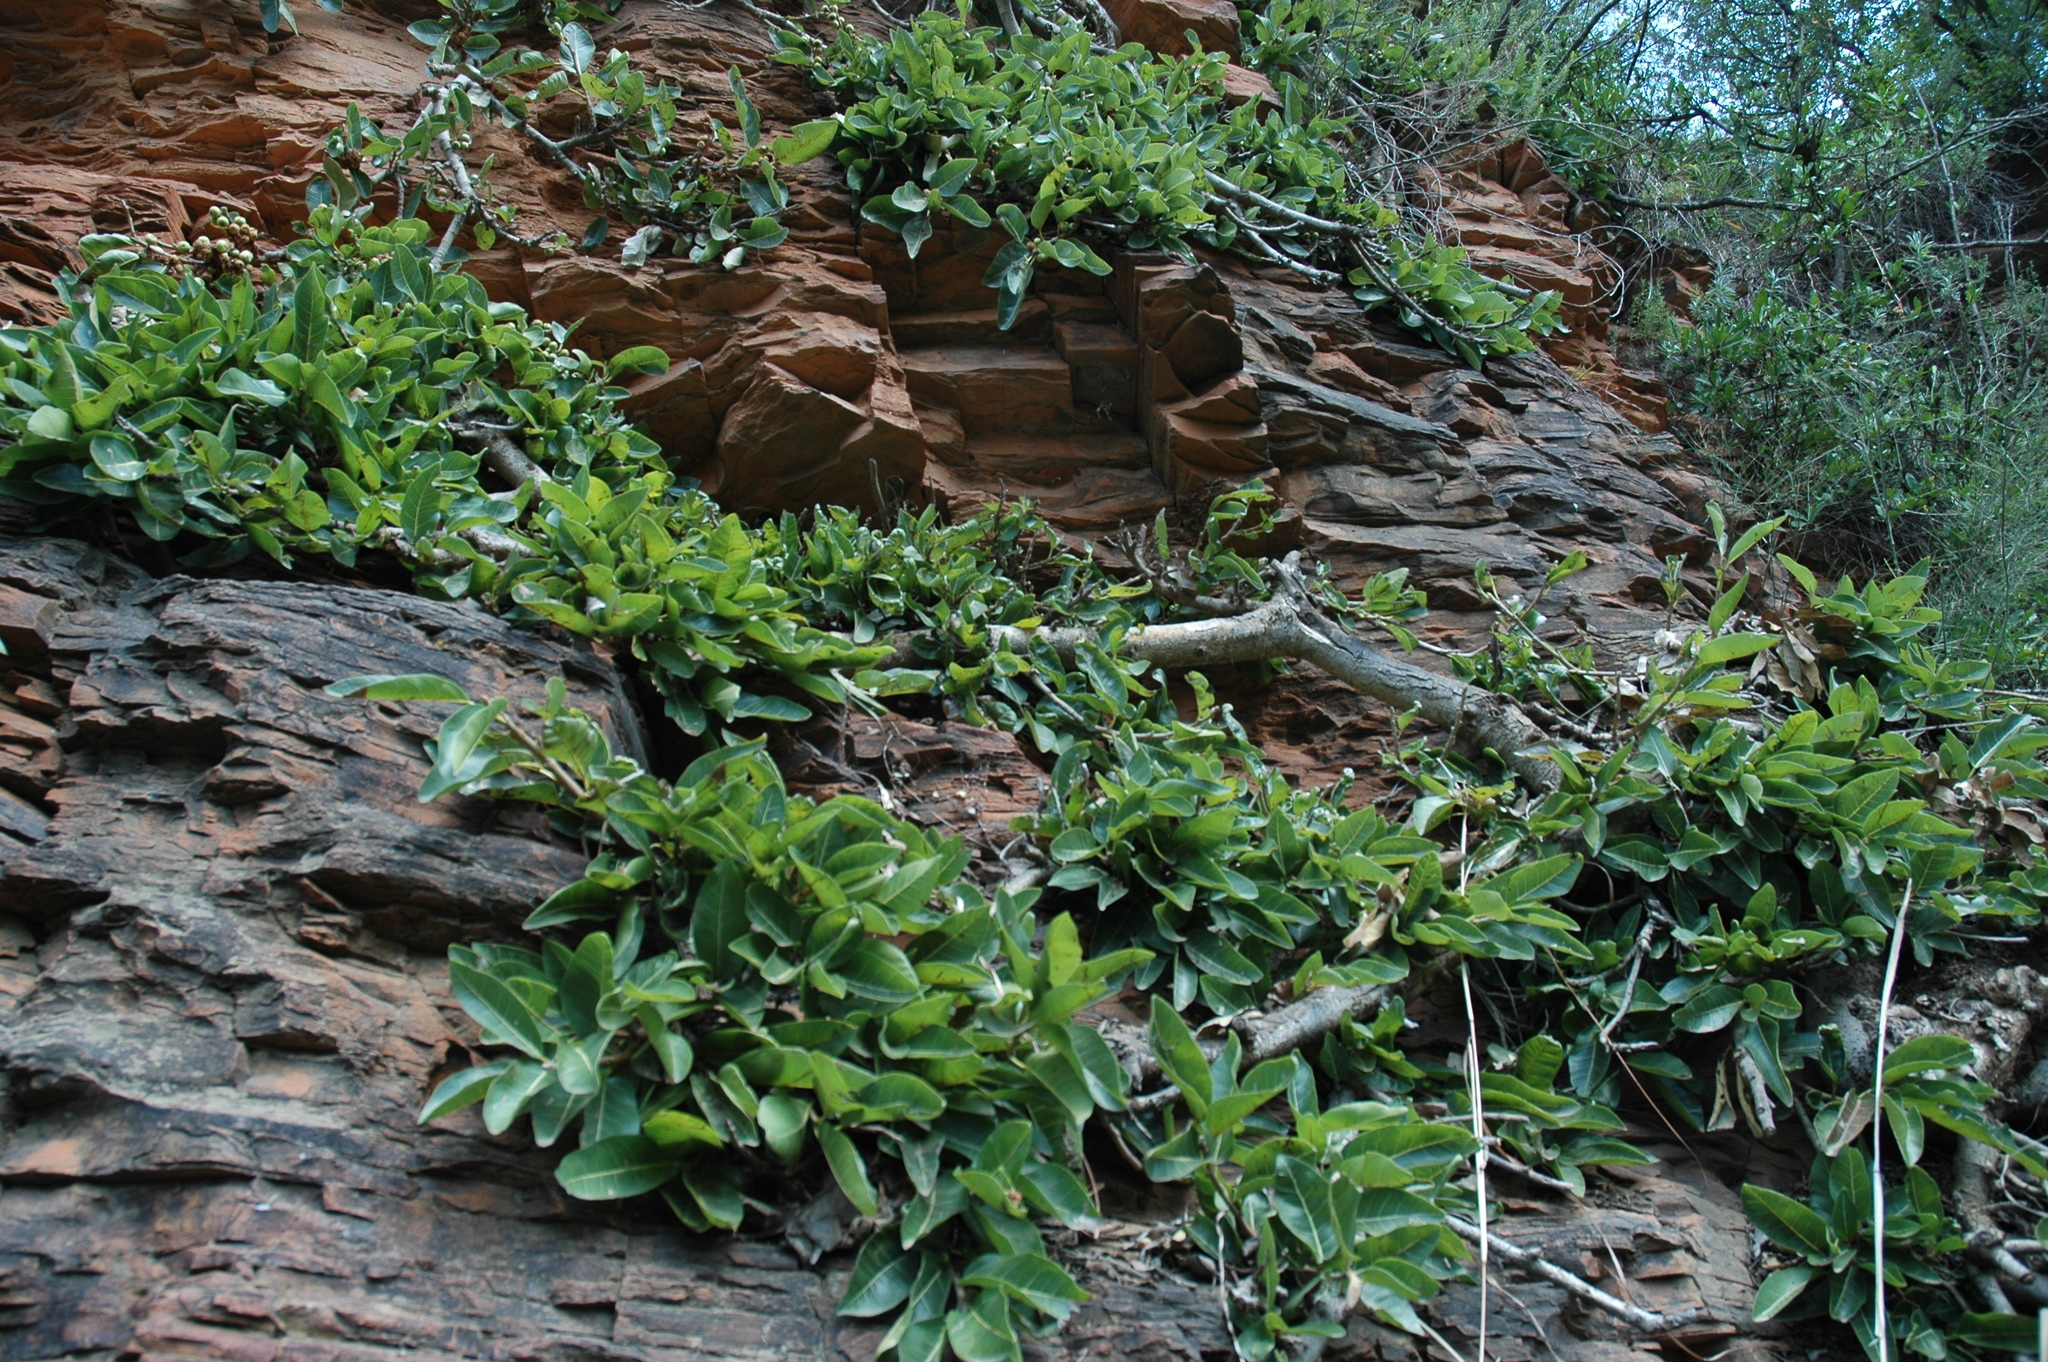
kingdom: Plantae
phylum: Tracheophyta
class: Magnoliopsida
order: Rosales
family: Moraceae
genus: Ficus
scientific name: Ficus ingens
